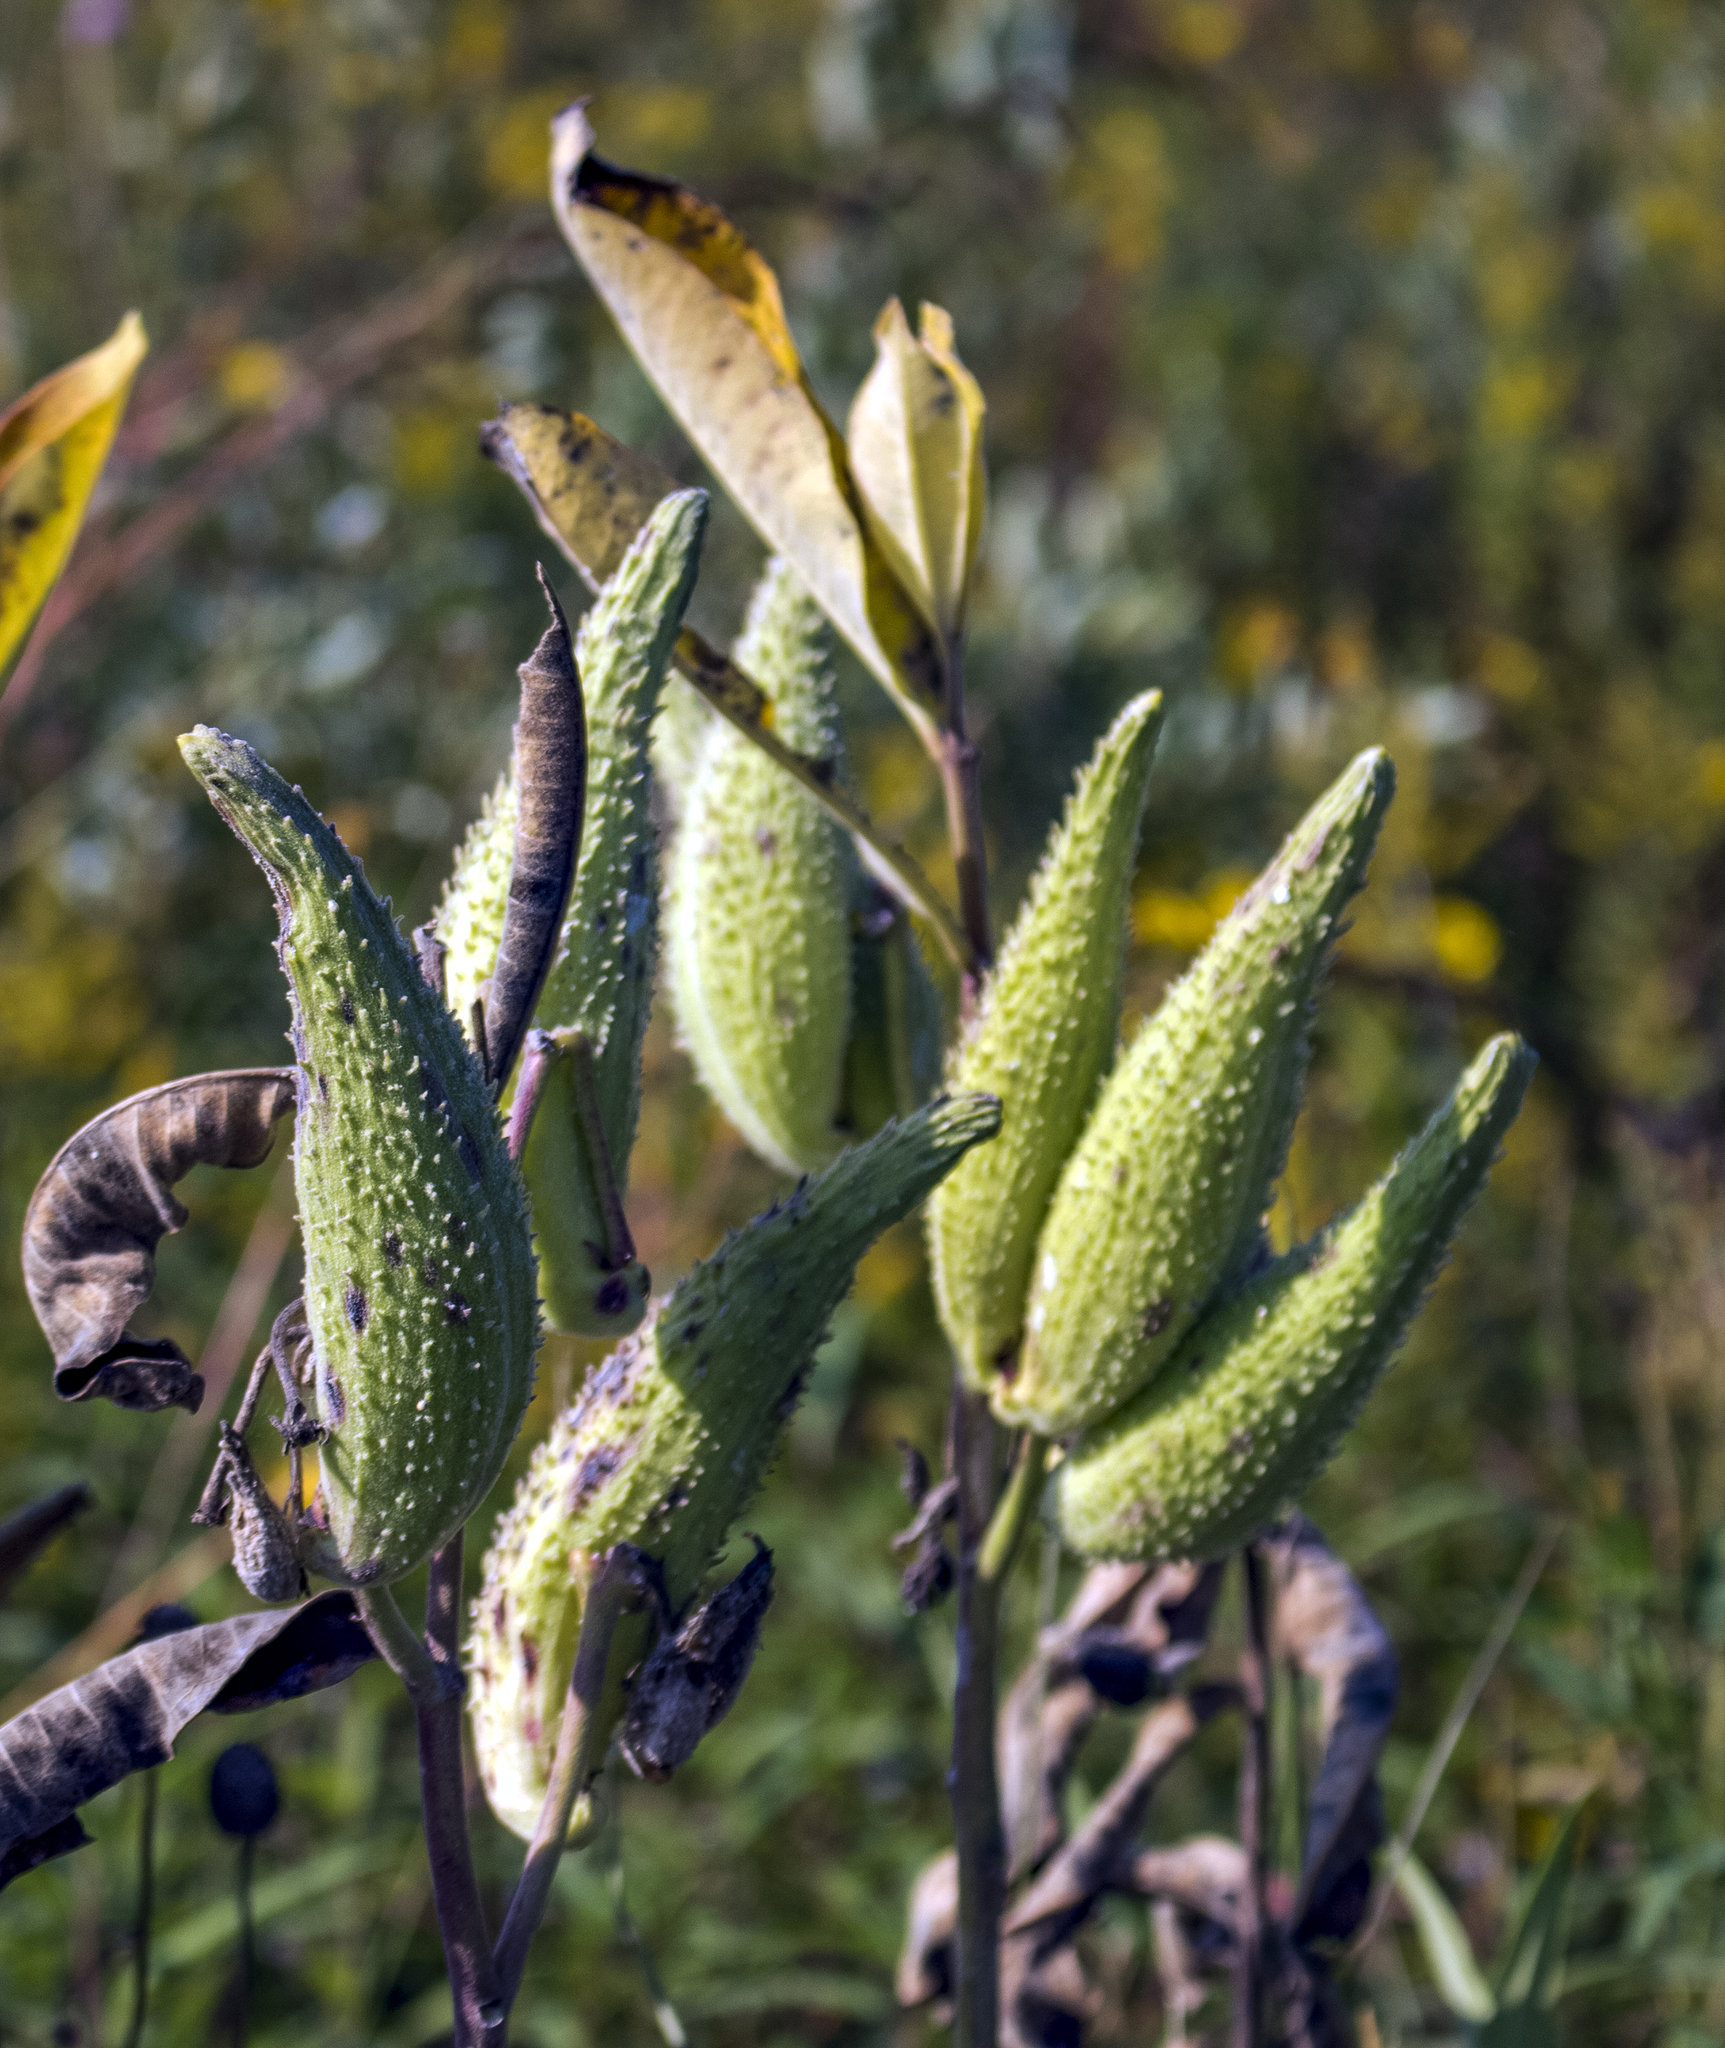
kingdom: Plantae
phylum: Tracheophyta
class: Magnoliopsida
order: Gentianales
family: Apocynaceae
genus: Asclepias
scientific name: Asclepias syriaca
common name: Common milkweed
